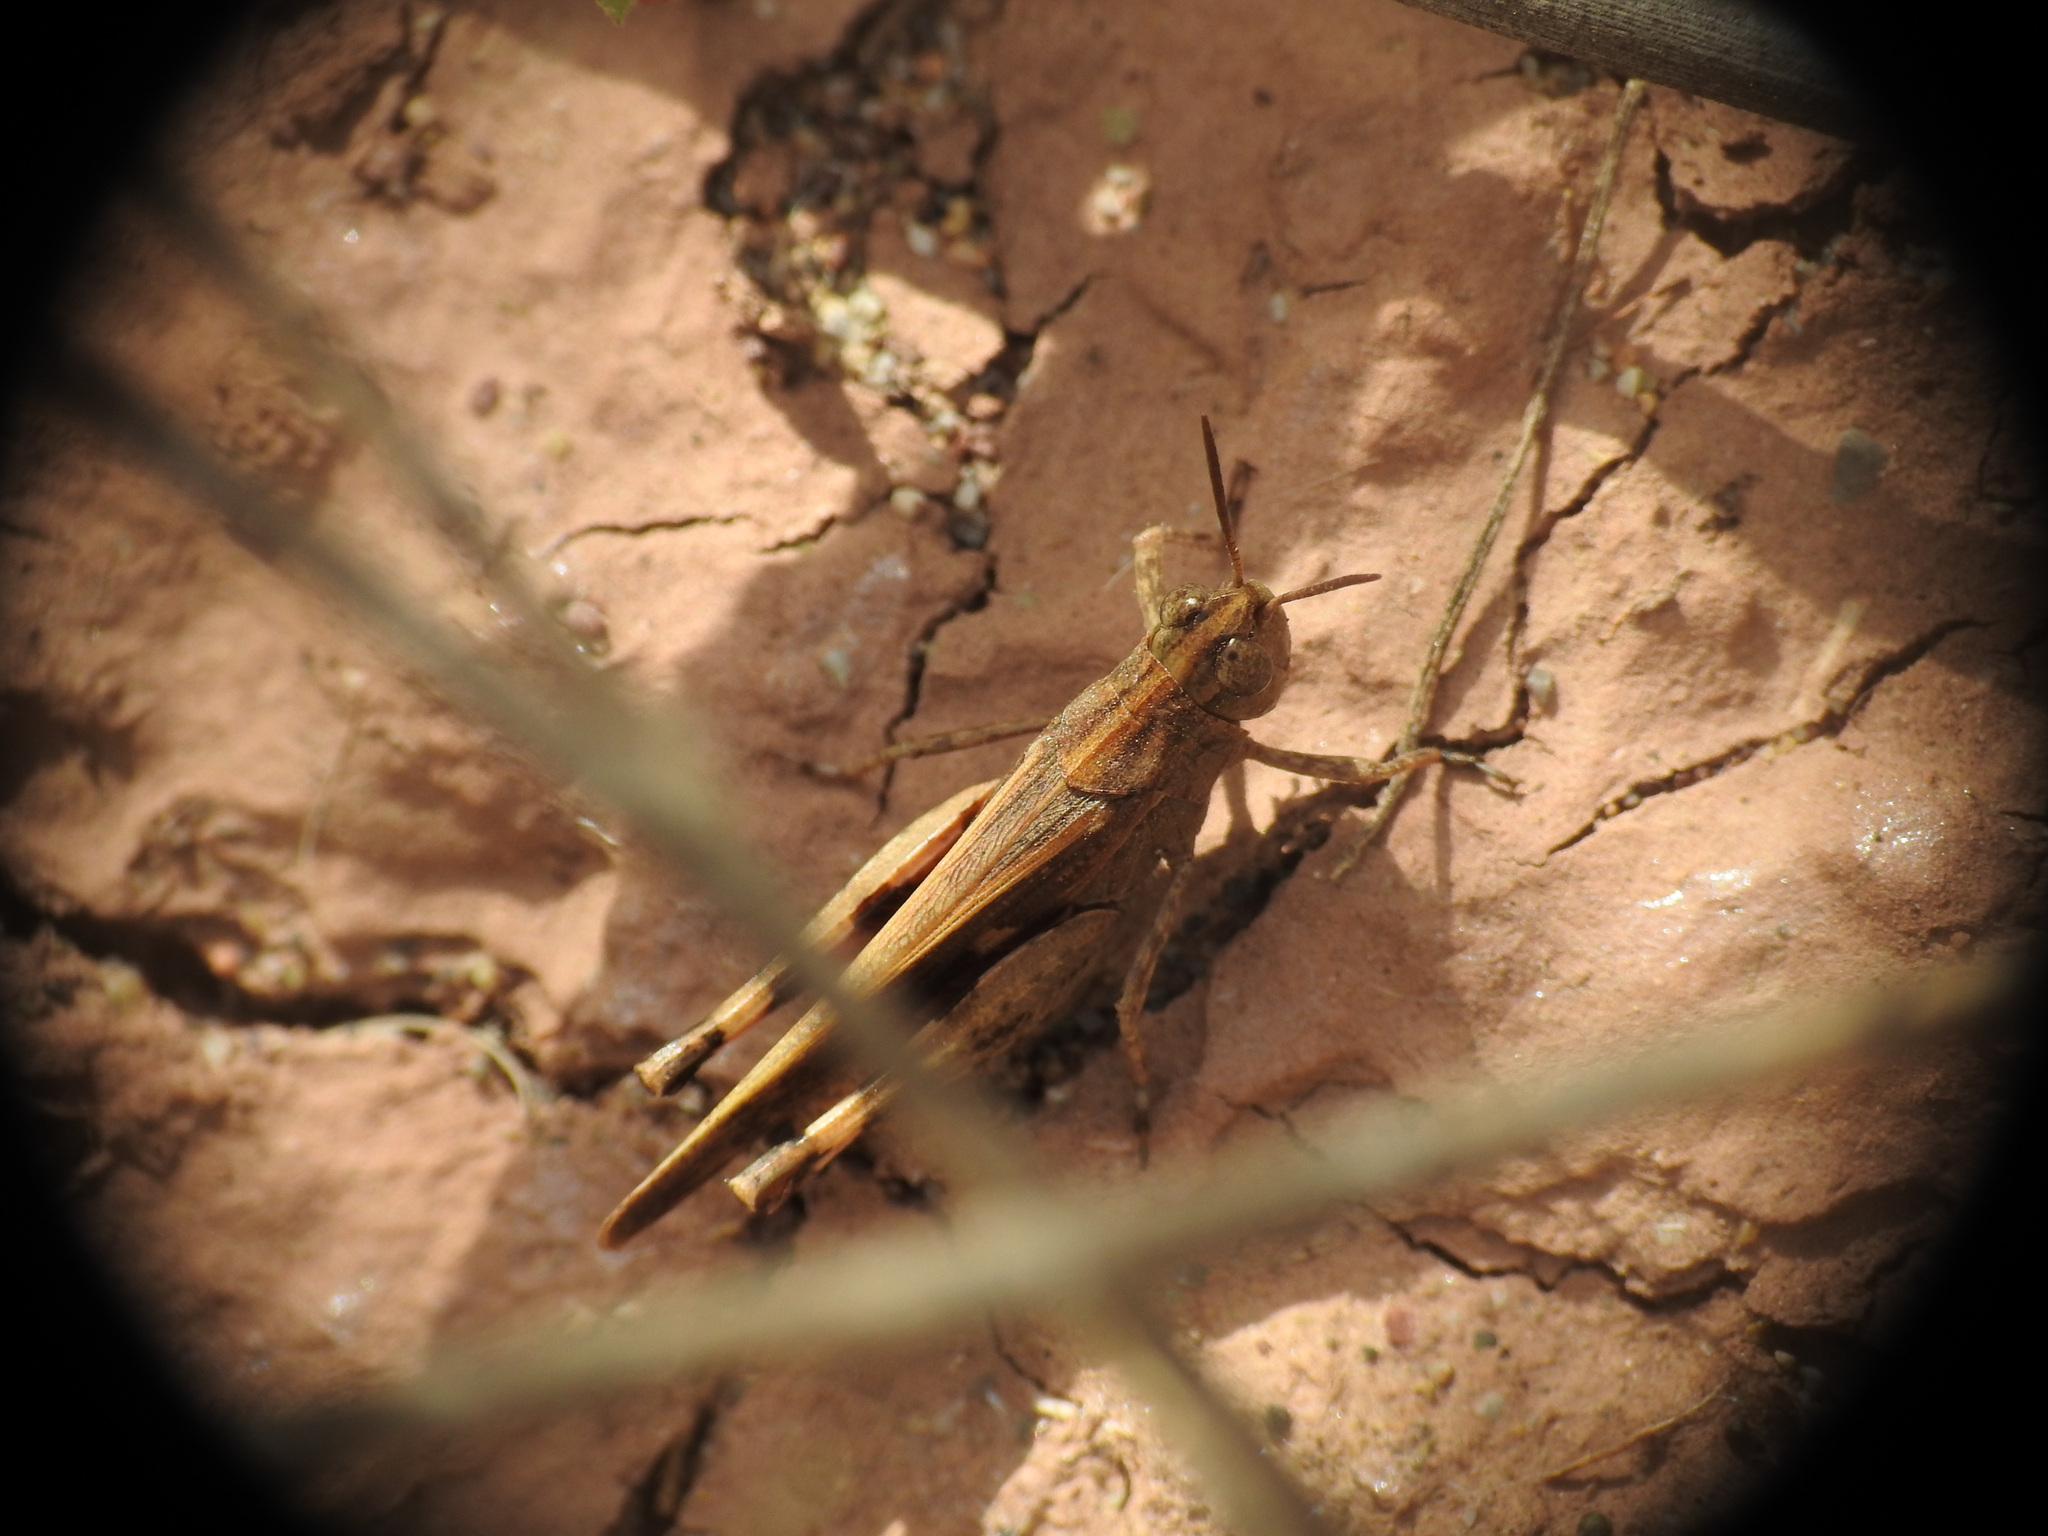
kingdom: Animalia
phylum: Arthropoda
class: Insecta
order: Orthoptera
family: Acrididae
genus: Aiolopus
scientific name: Aiolopus strepens
